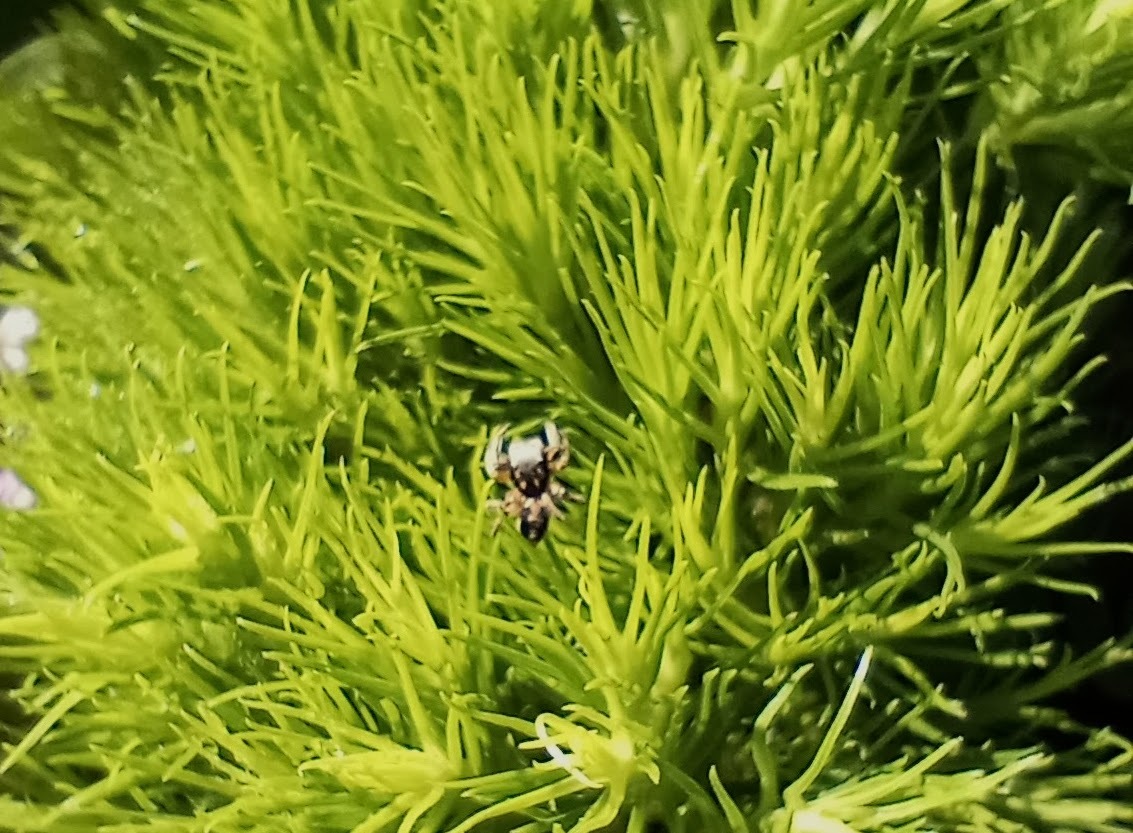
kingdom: Animalia
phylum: Arthropoda
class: Arachnida
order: Araneae
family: Salticidae
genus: Habronattus
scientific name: Habronattus pyrrithrix
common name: Jumping spider
